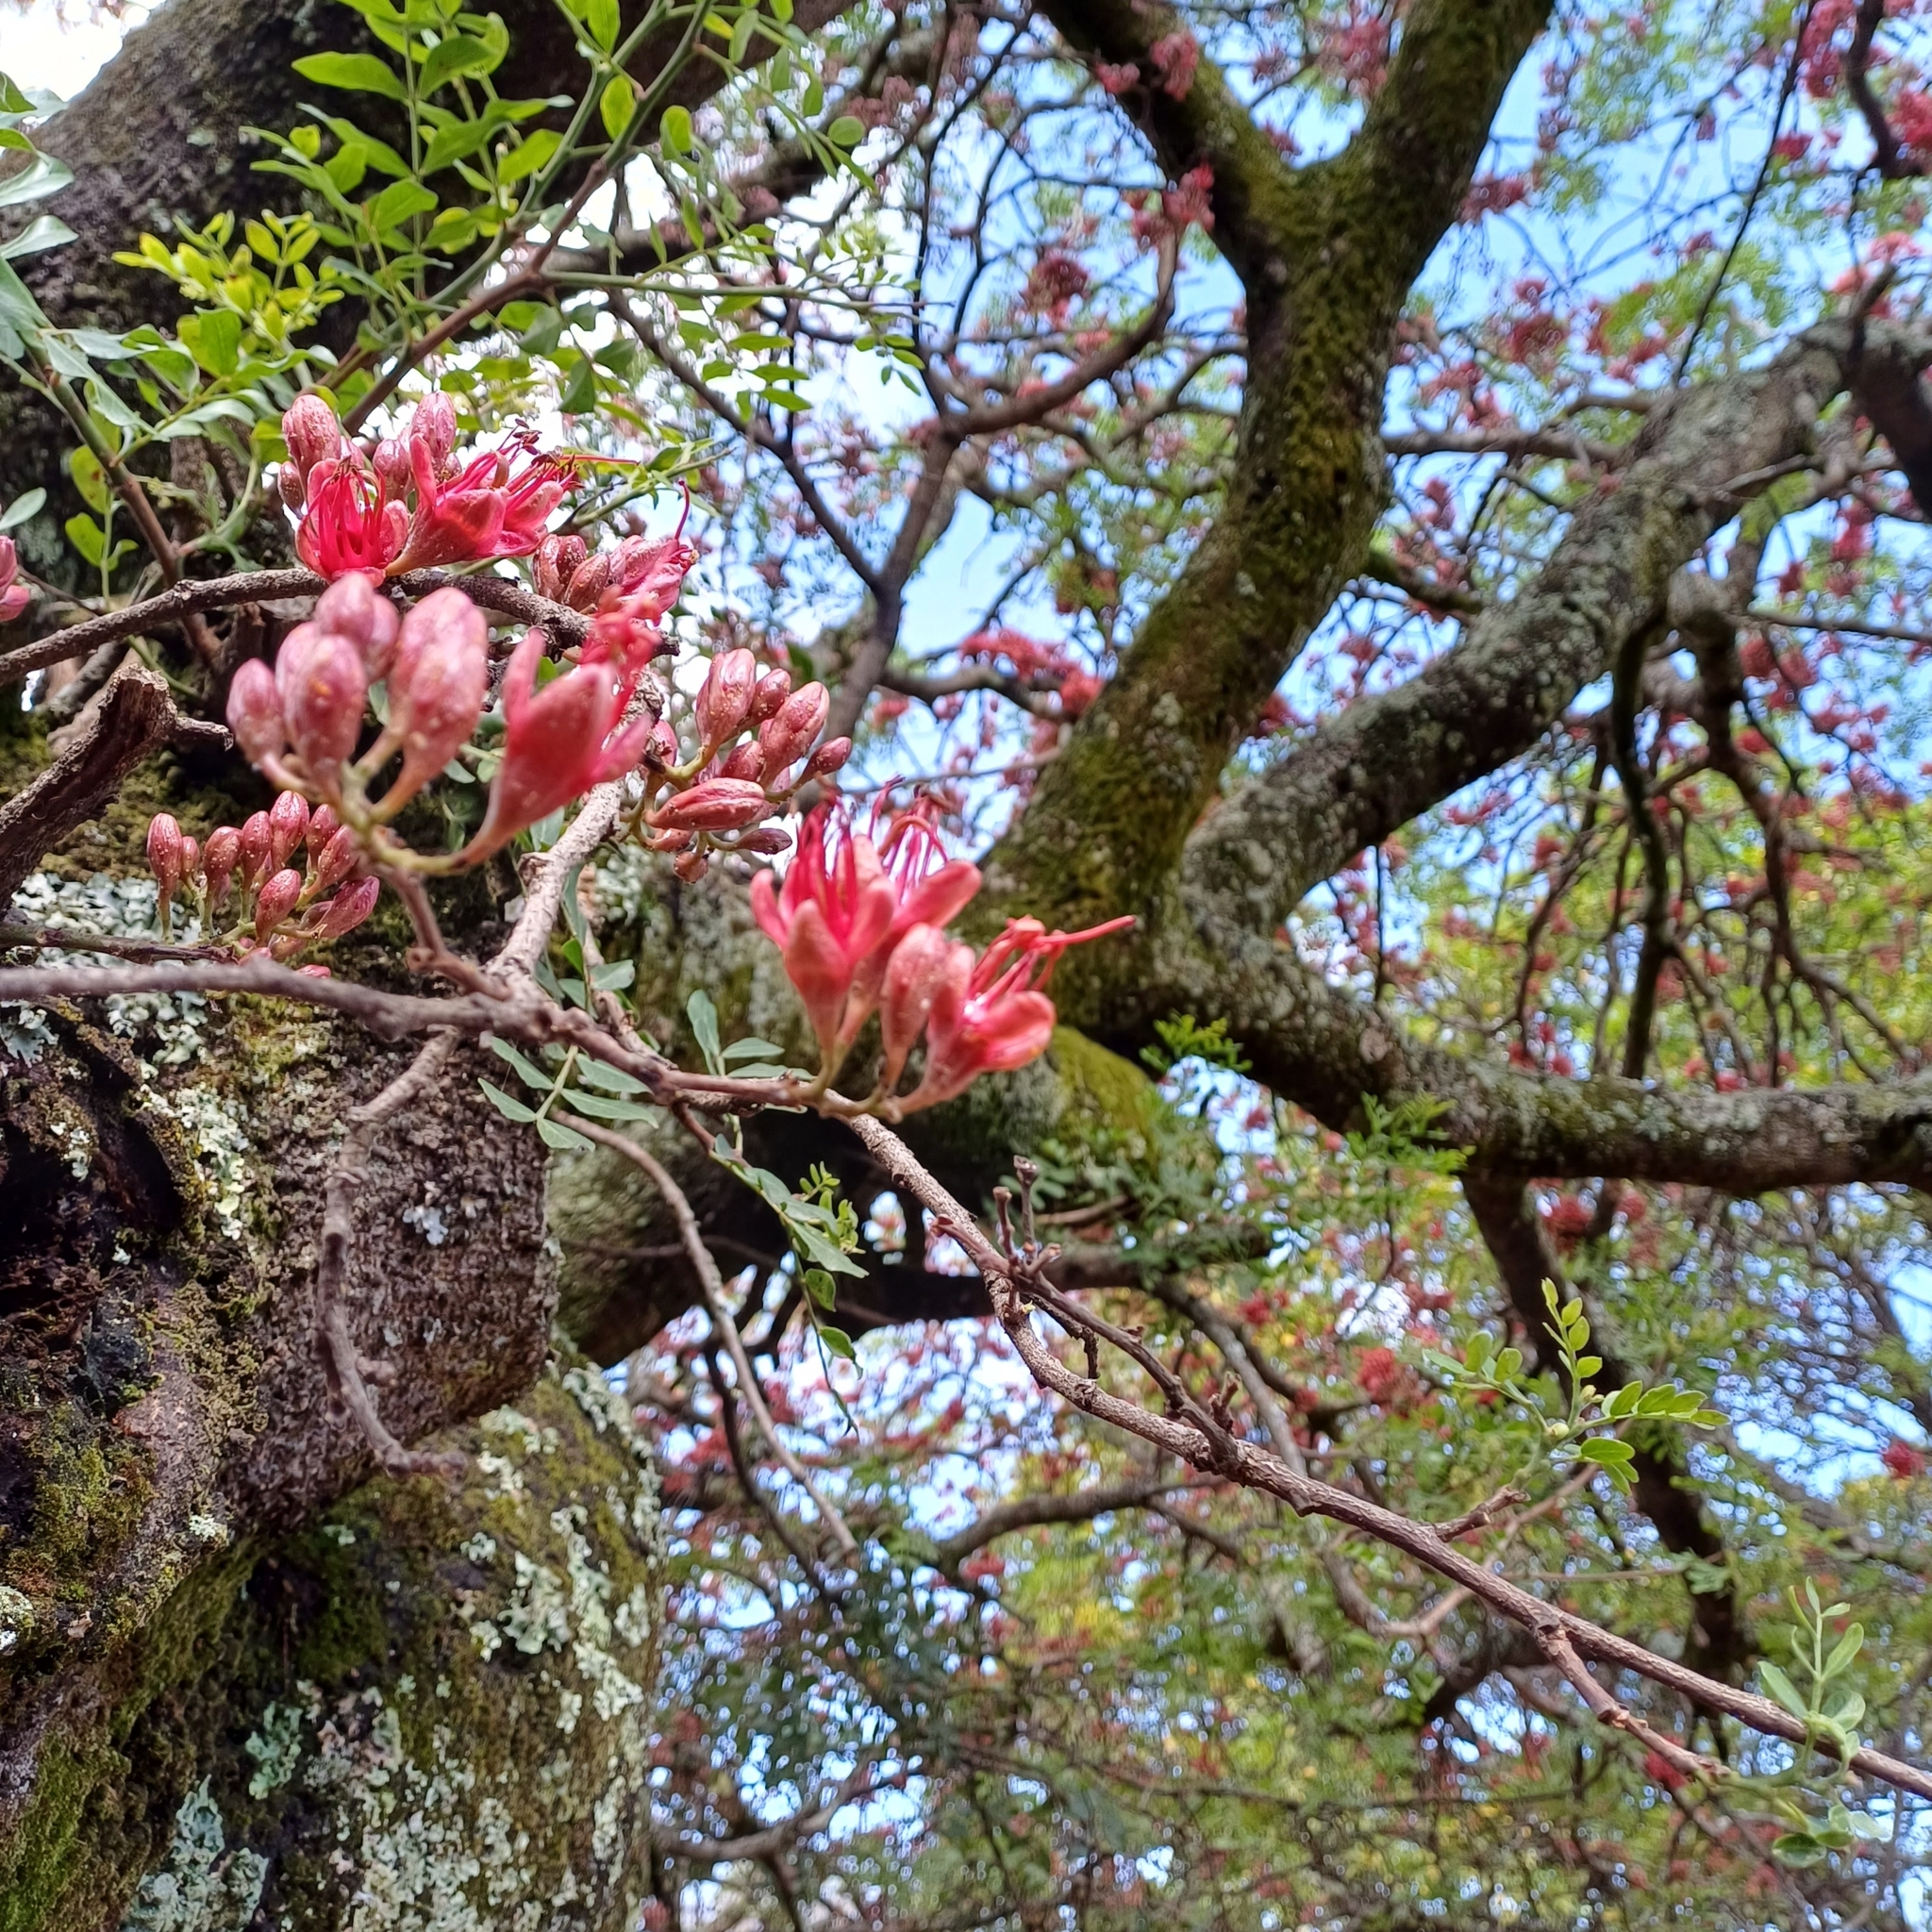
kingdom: Plantae
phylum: Tracheophyta
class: Magnoliopsida
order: Fabales
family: Fabaceae
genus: Schotia
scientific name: Schotia brachypetala
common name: Weeping boer-bean
